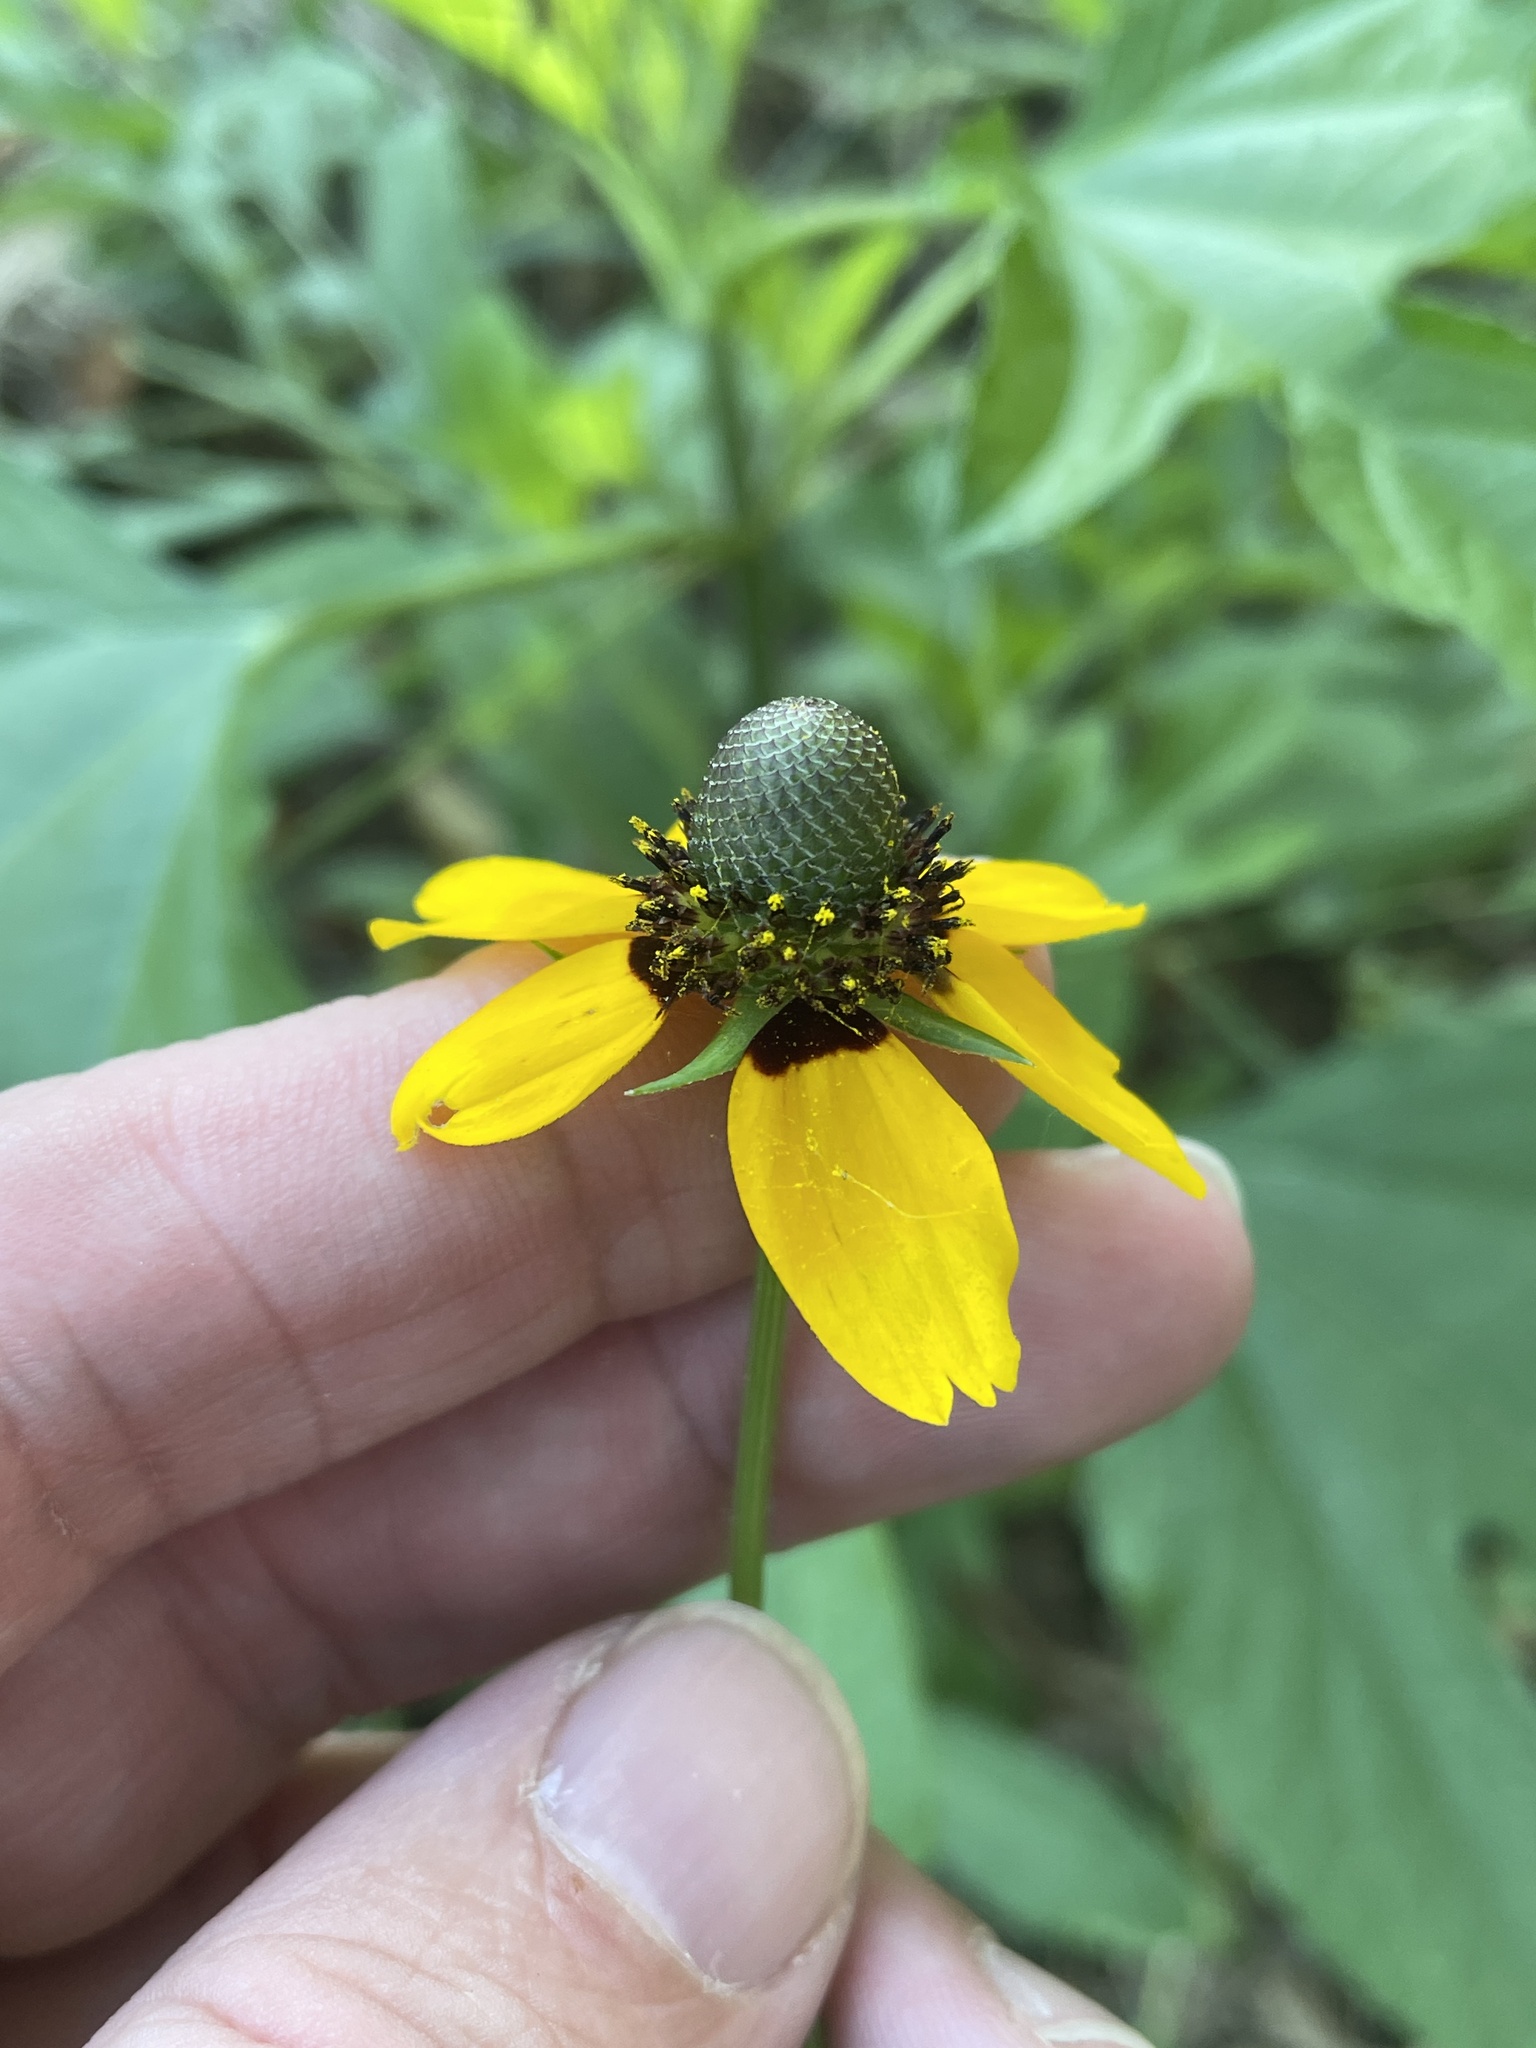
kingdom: Plantae
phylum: Tracheophyta
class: Magnoliopsida
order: Asterales
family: Asteraceae
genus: Rudbeckia
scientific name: Rudbeckia amplexicaulis
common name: Clasping-leaf coneflower
